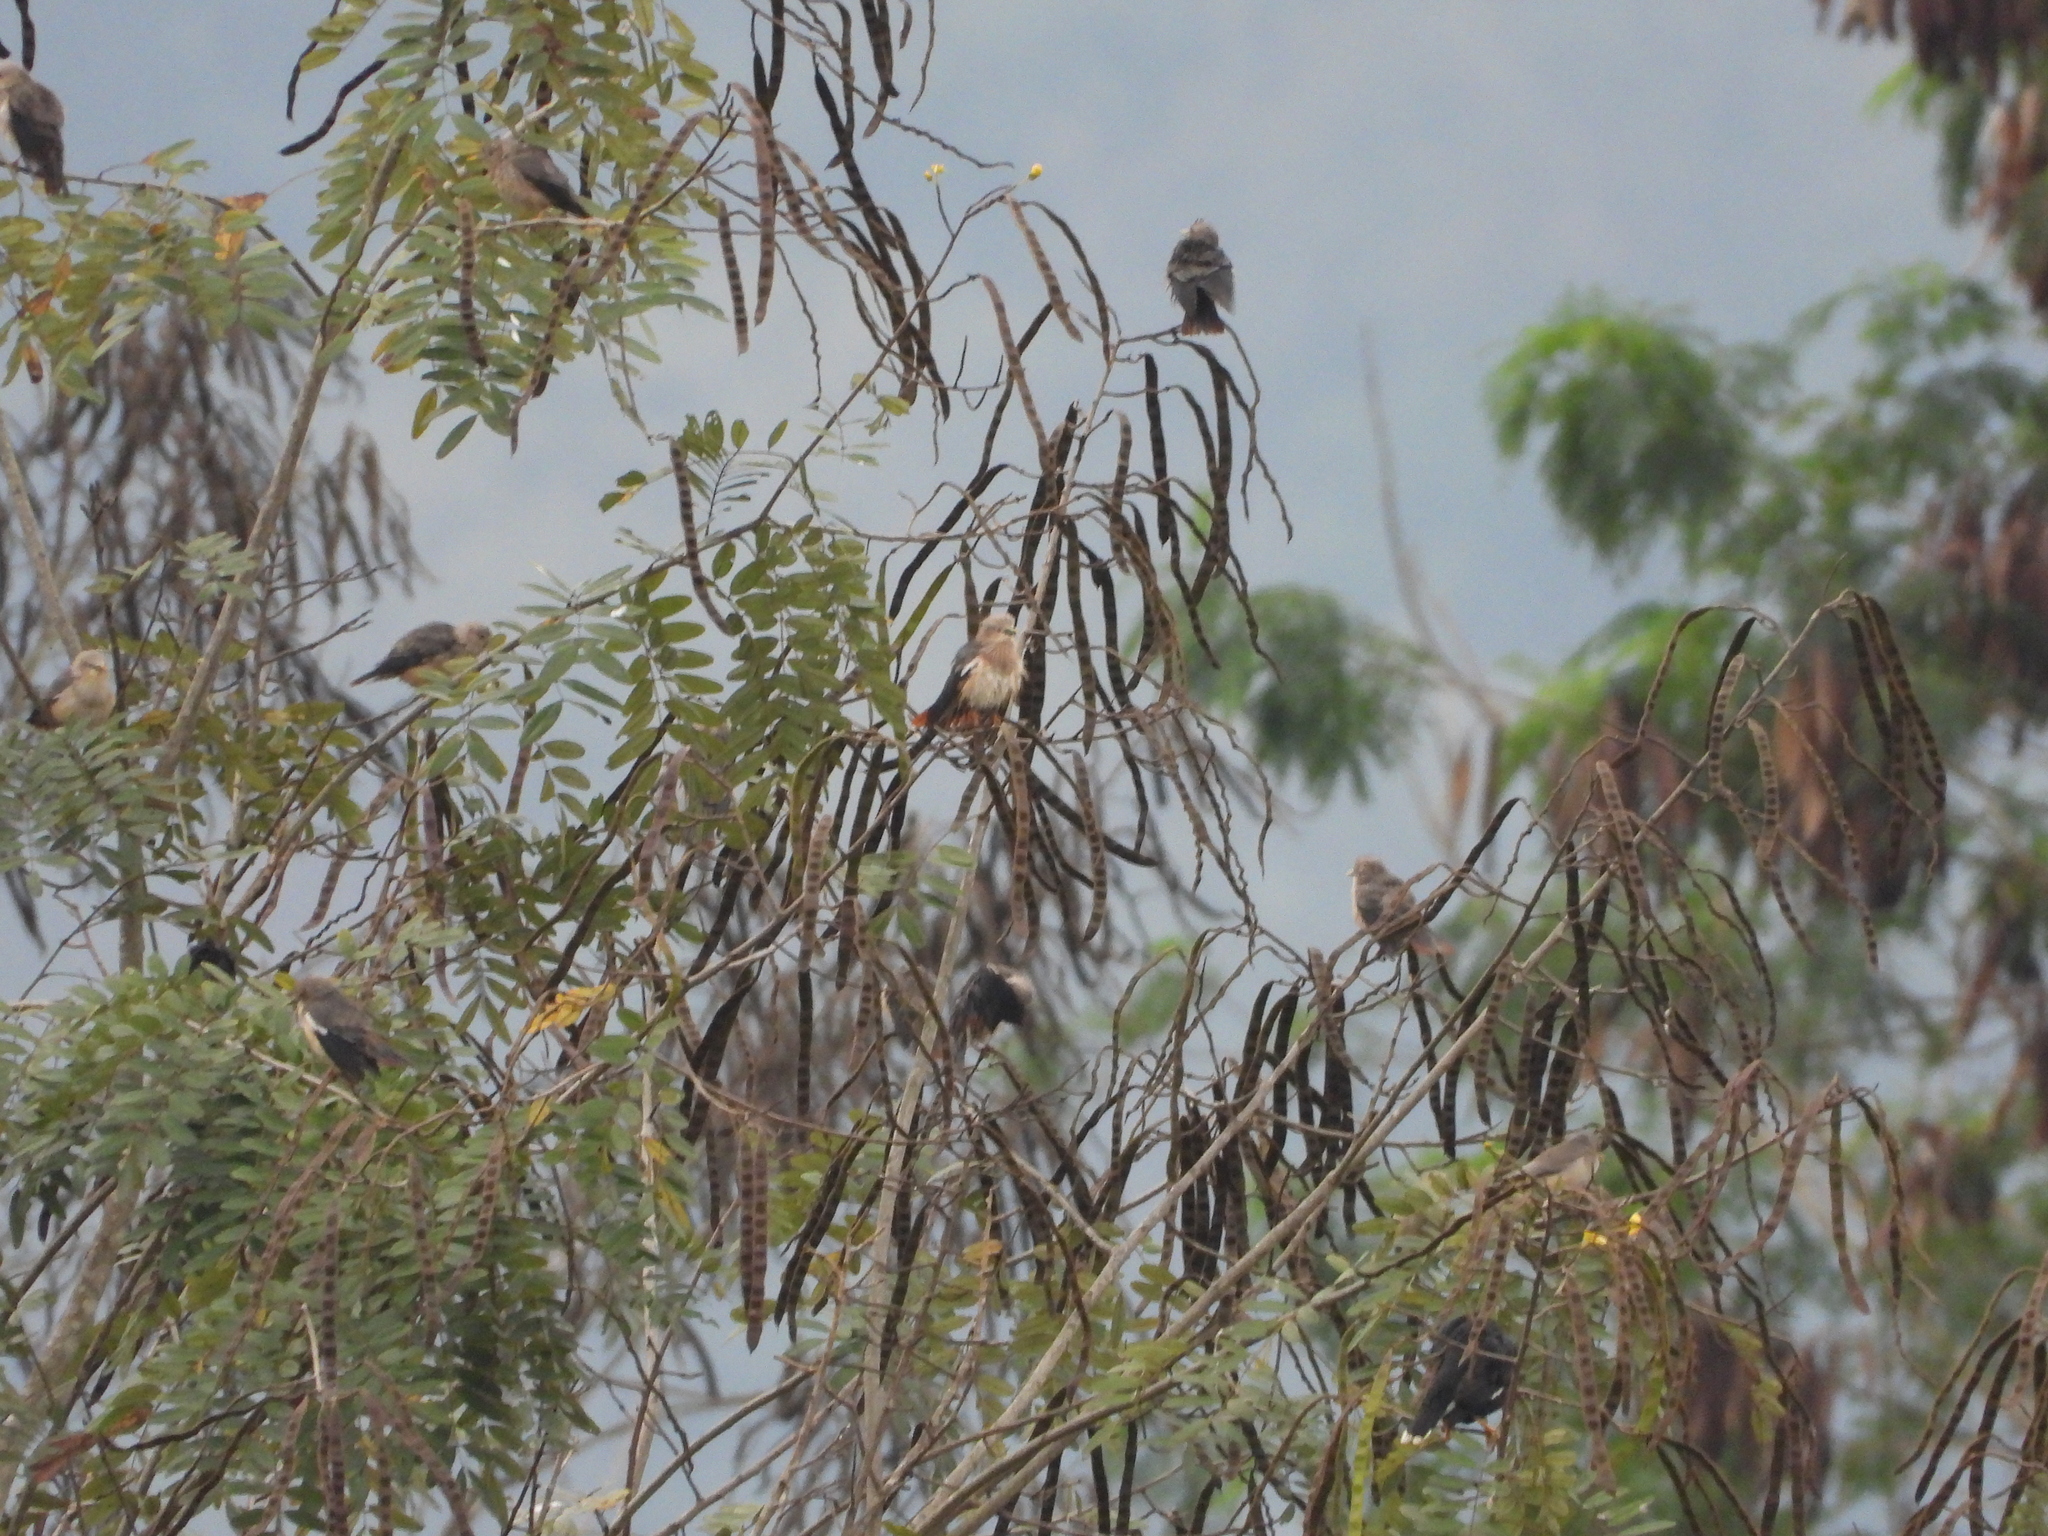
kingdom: Animalia
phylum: Chordata
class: Aves
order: Passeriformes
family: Sturnidae
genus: Sturnia
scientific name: Sturnia malabarica
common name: Chestnut-tailed starling
